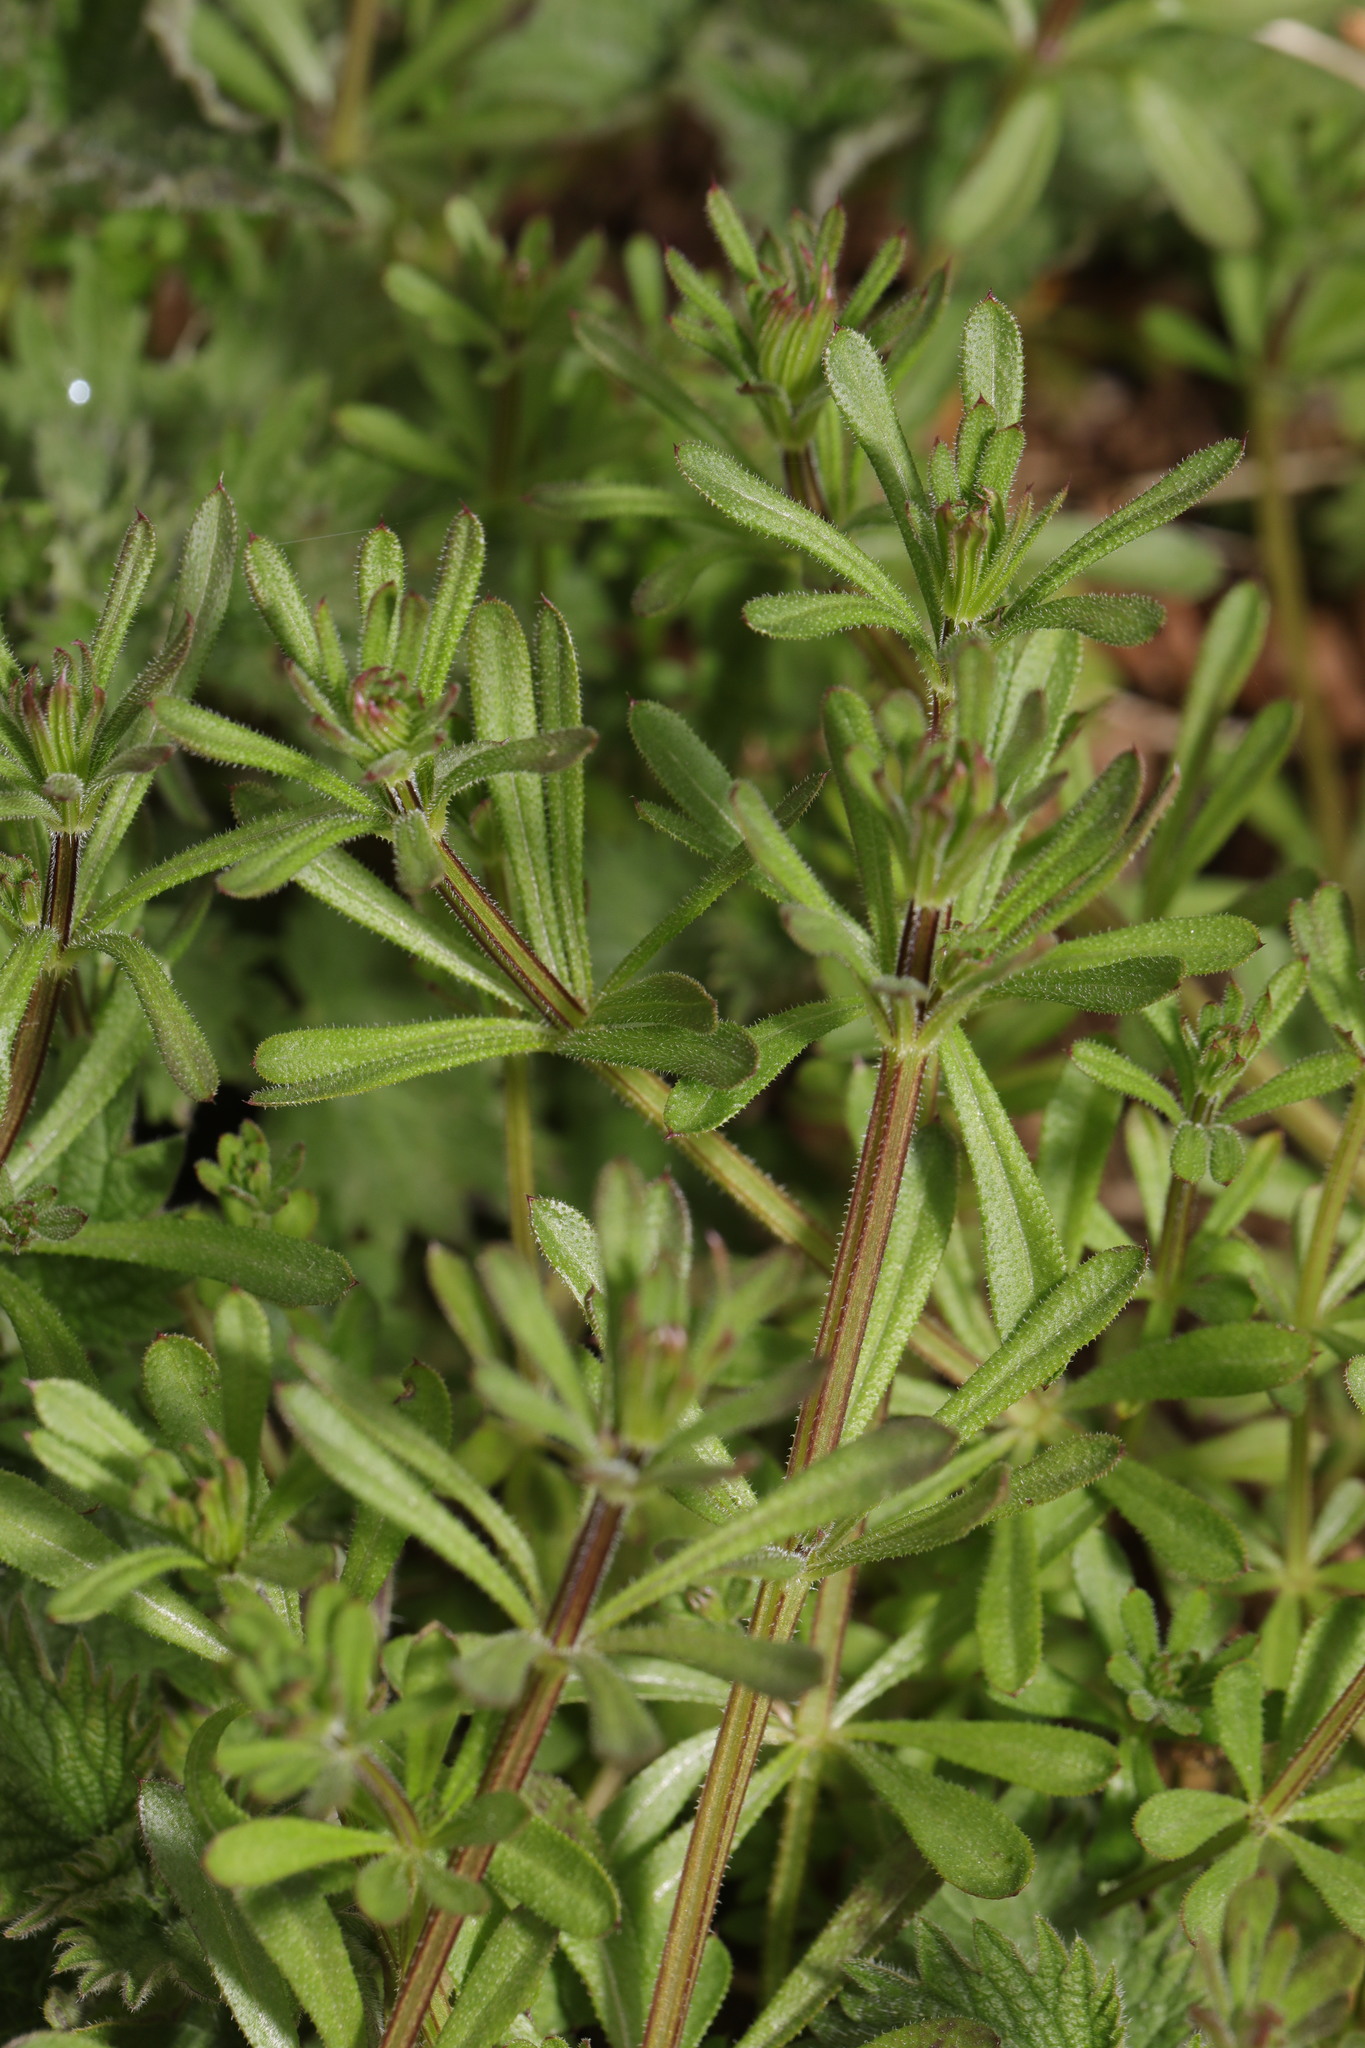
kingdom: Plantae
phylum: Tracheophyta
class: Magnoliopsida
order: Gentianales
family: Rubiaceae
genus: Galium
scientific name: Galium aparine
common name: Cleavers
